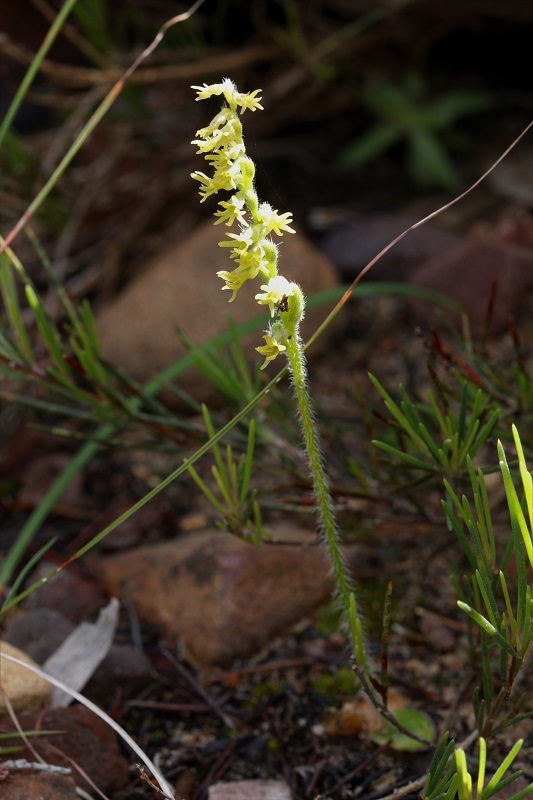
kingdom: Plantae
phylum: Tracheophyta
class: Liliopsida
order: Asparagales
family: Orchidaceae
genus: Holothrix
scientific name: Holothrix cernua
